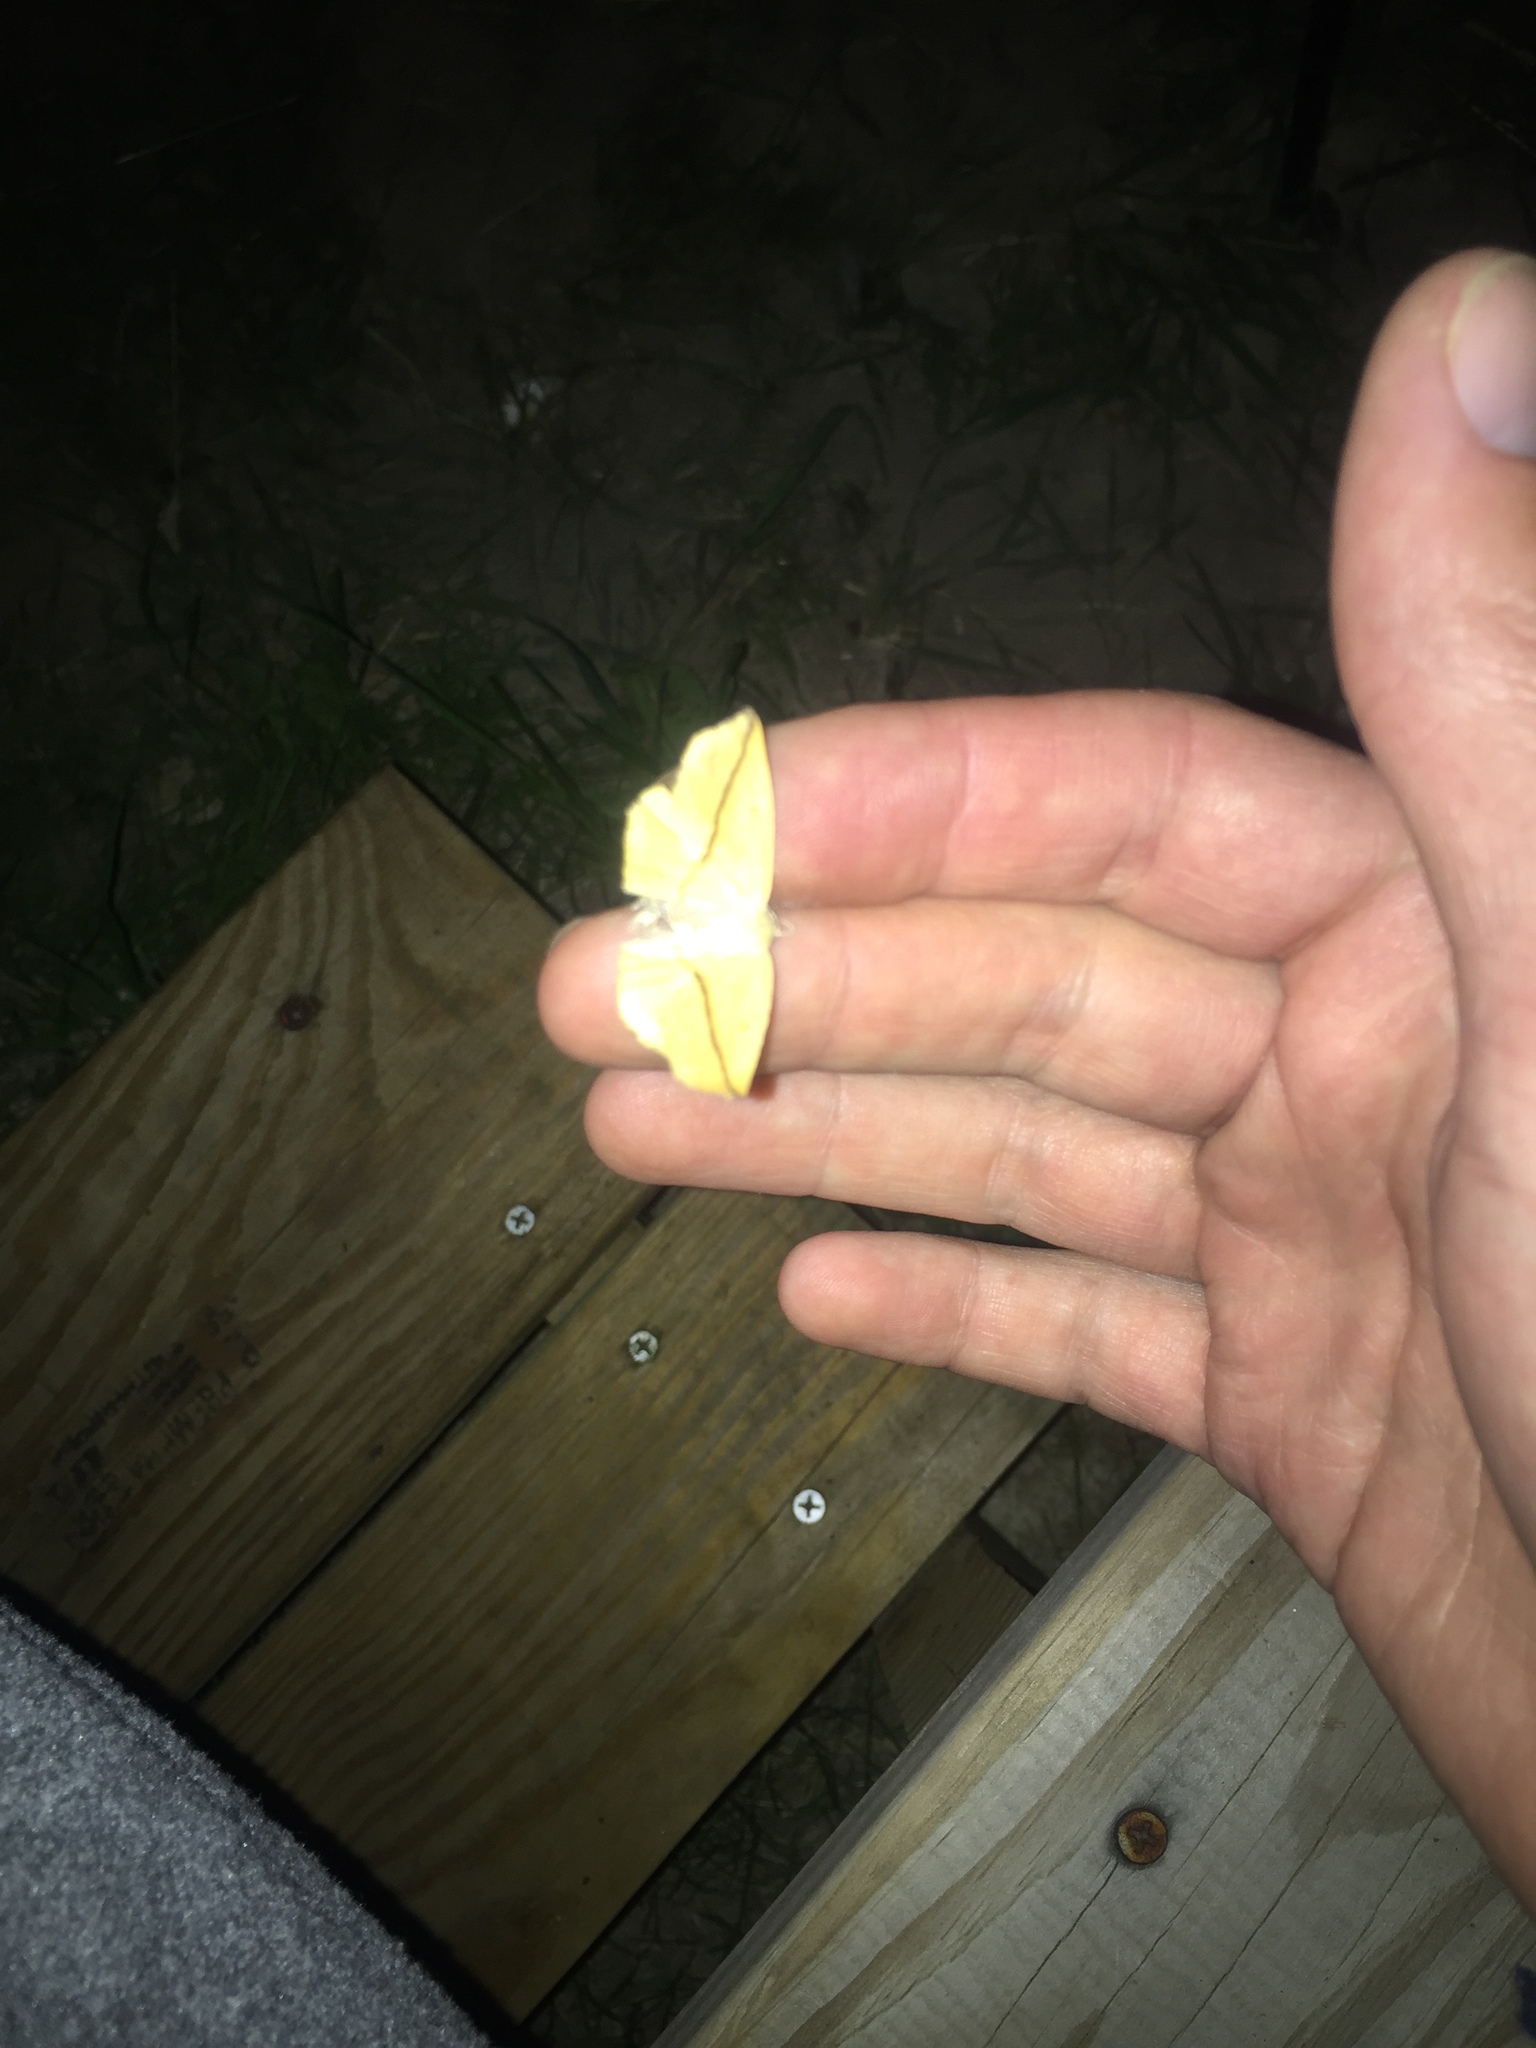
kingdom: Animalia
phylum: Arthropoda
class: Insecta
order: Lepidoptera
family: Geometridae
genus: Tetracis
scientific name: Tetracis crocallata
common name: Yellow slant-line
